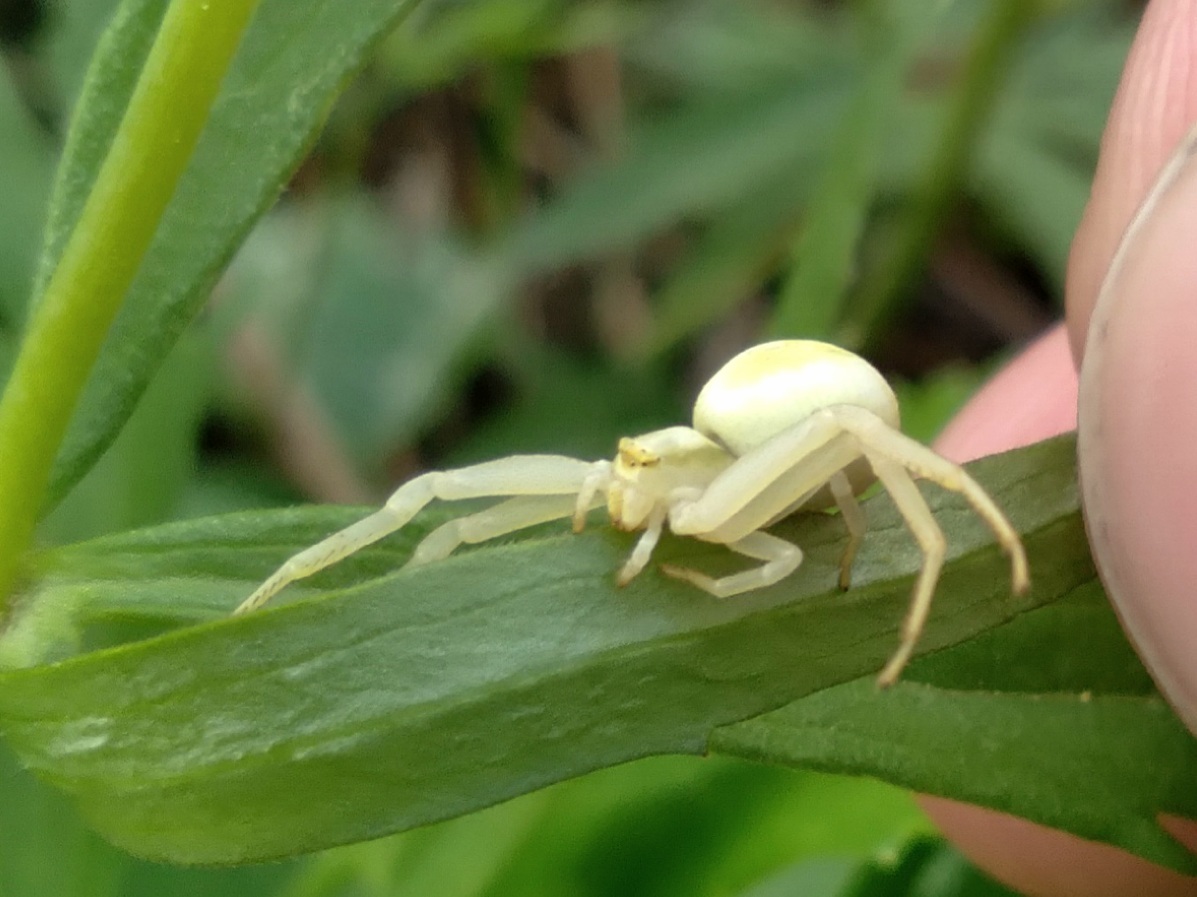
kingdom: Animalia
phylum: Arthropoda
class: Arachnida
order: Araneae
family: Thomisidae
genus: Misumena
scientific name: Misumena vatia
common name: Goldenrod crab spider
